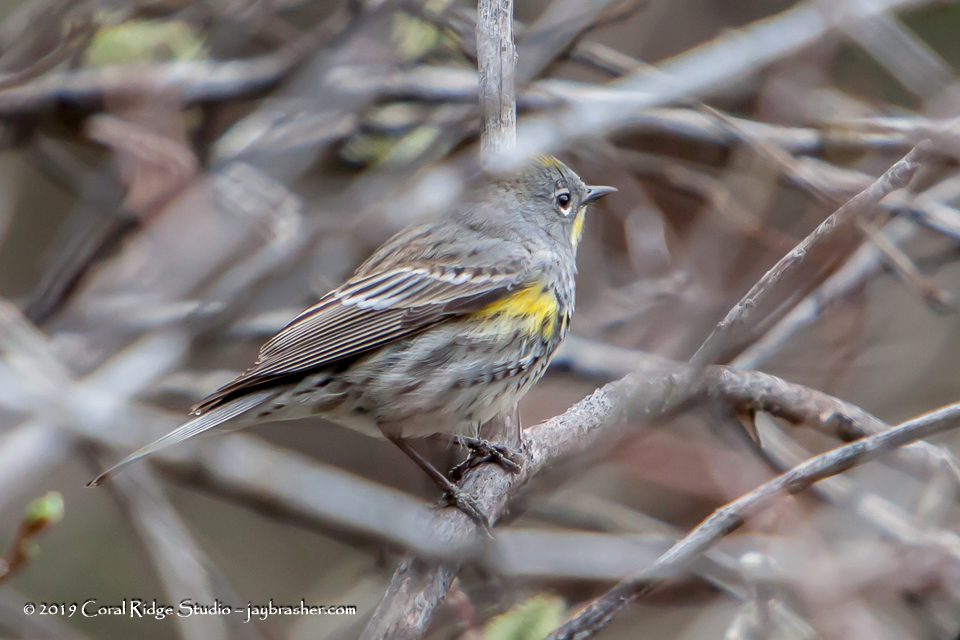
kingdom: Animalia
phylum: Chordata
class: Aves
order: Passeriformes
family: Parulidae
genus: Setophaga
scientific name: Setophaga coronata
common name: Myrtle warbler
